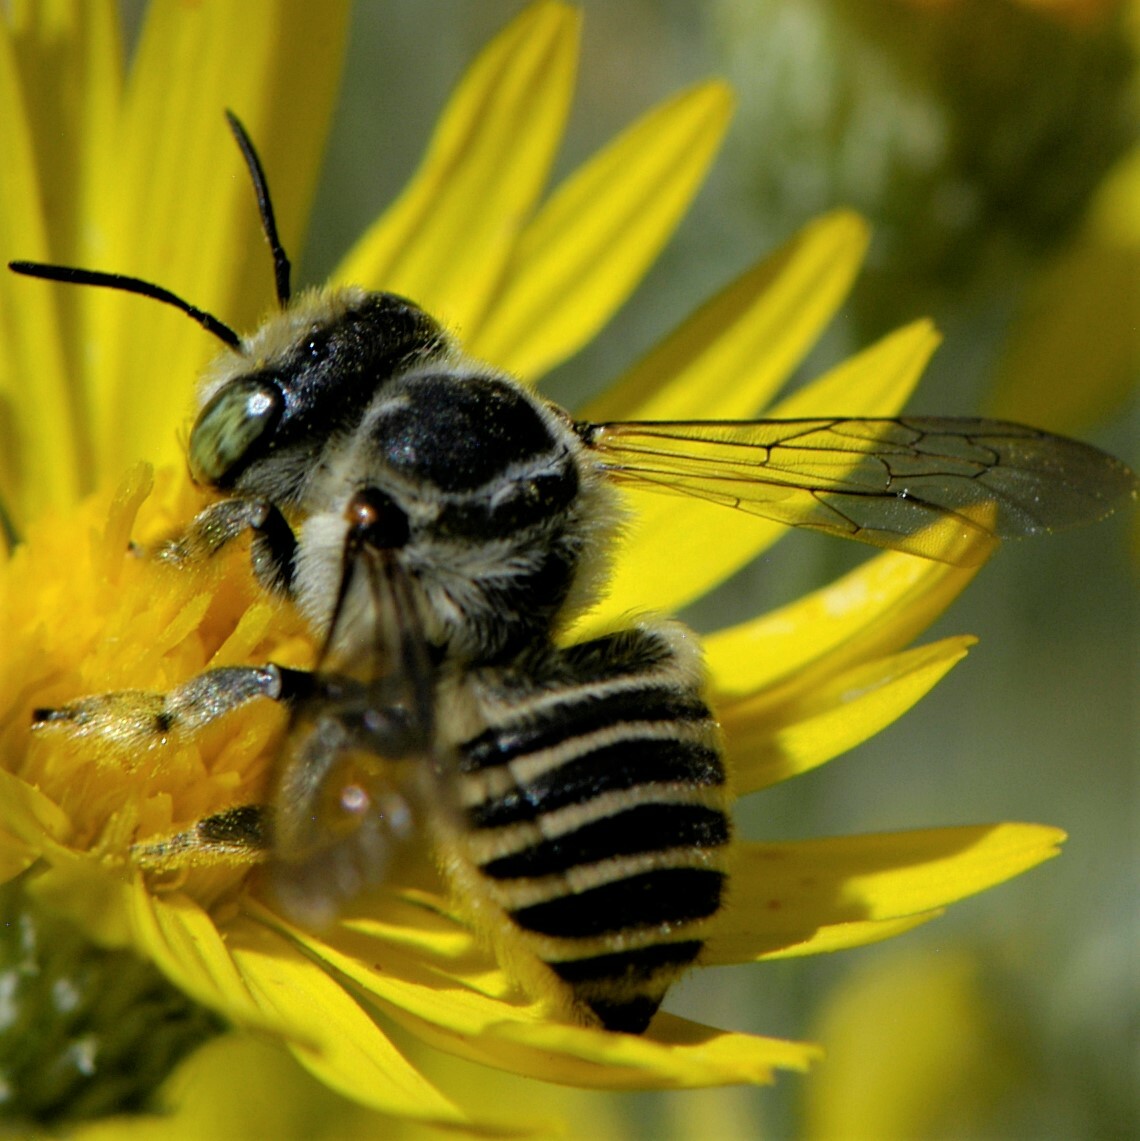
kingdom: Animalia
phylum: Arthropoda
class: Insecta
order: Hymenoptera
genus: Megachiloides
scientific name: Megachiloides
